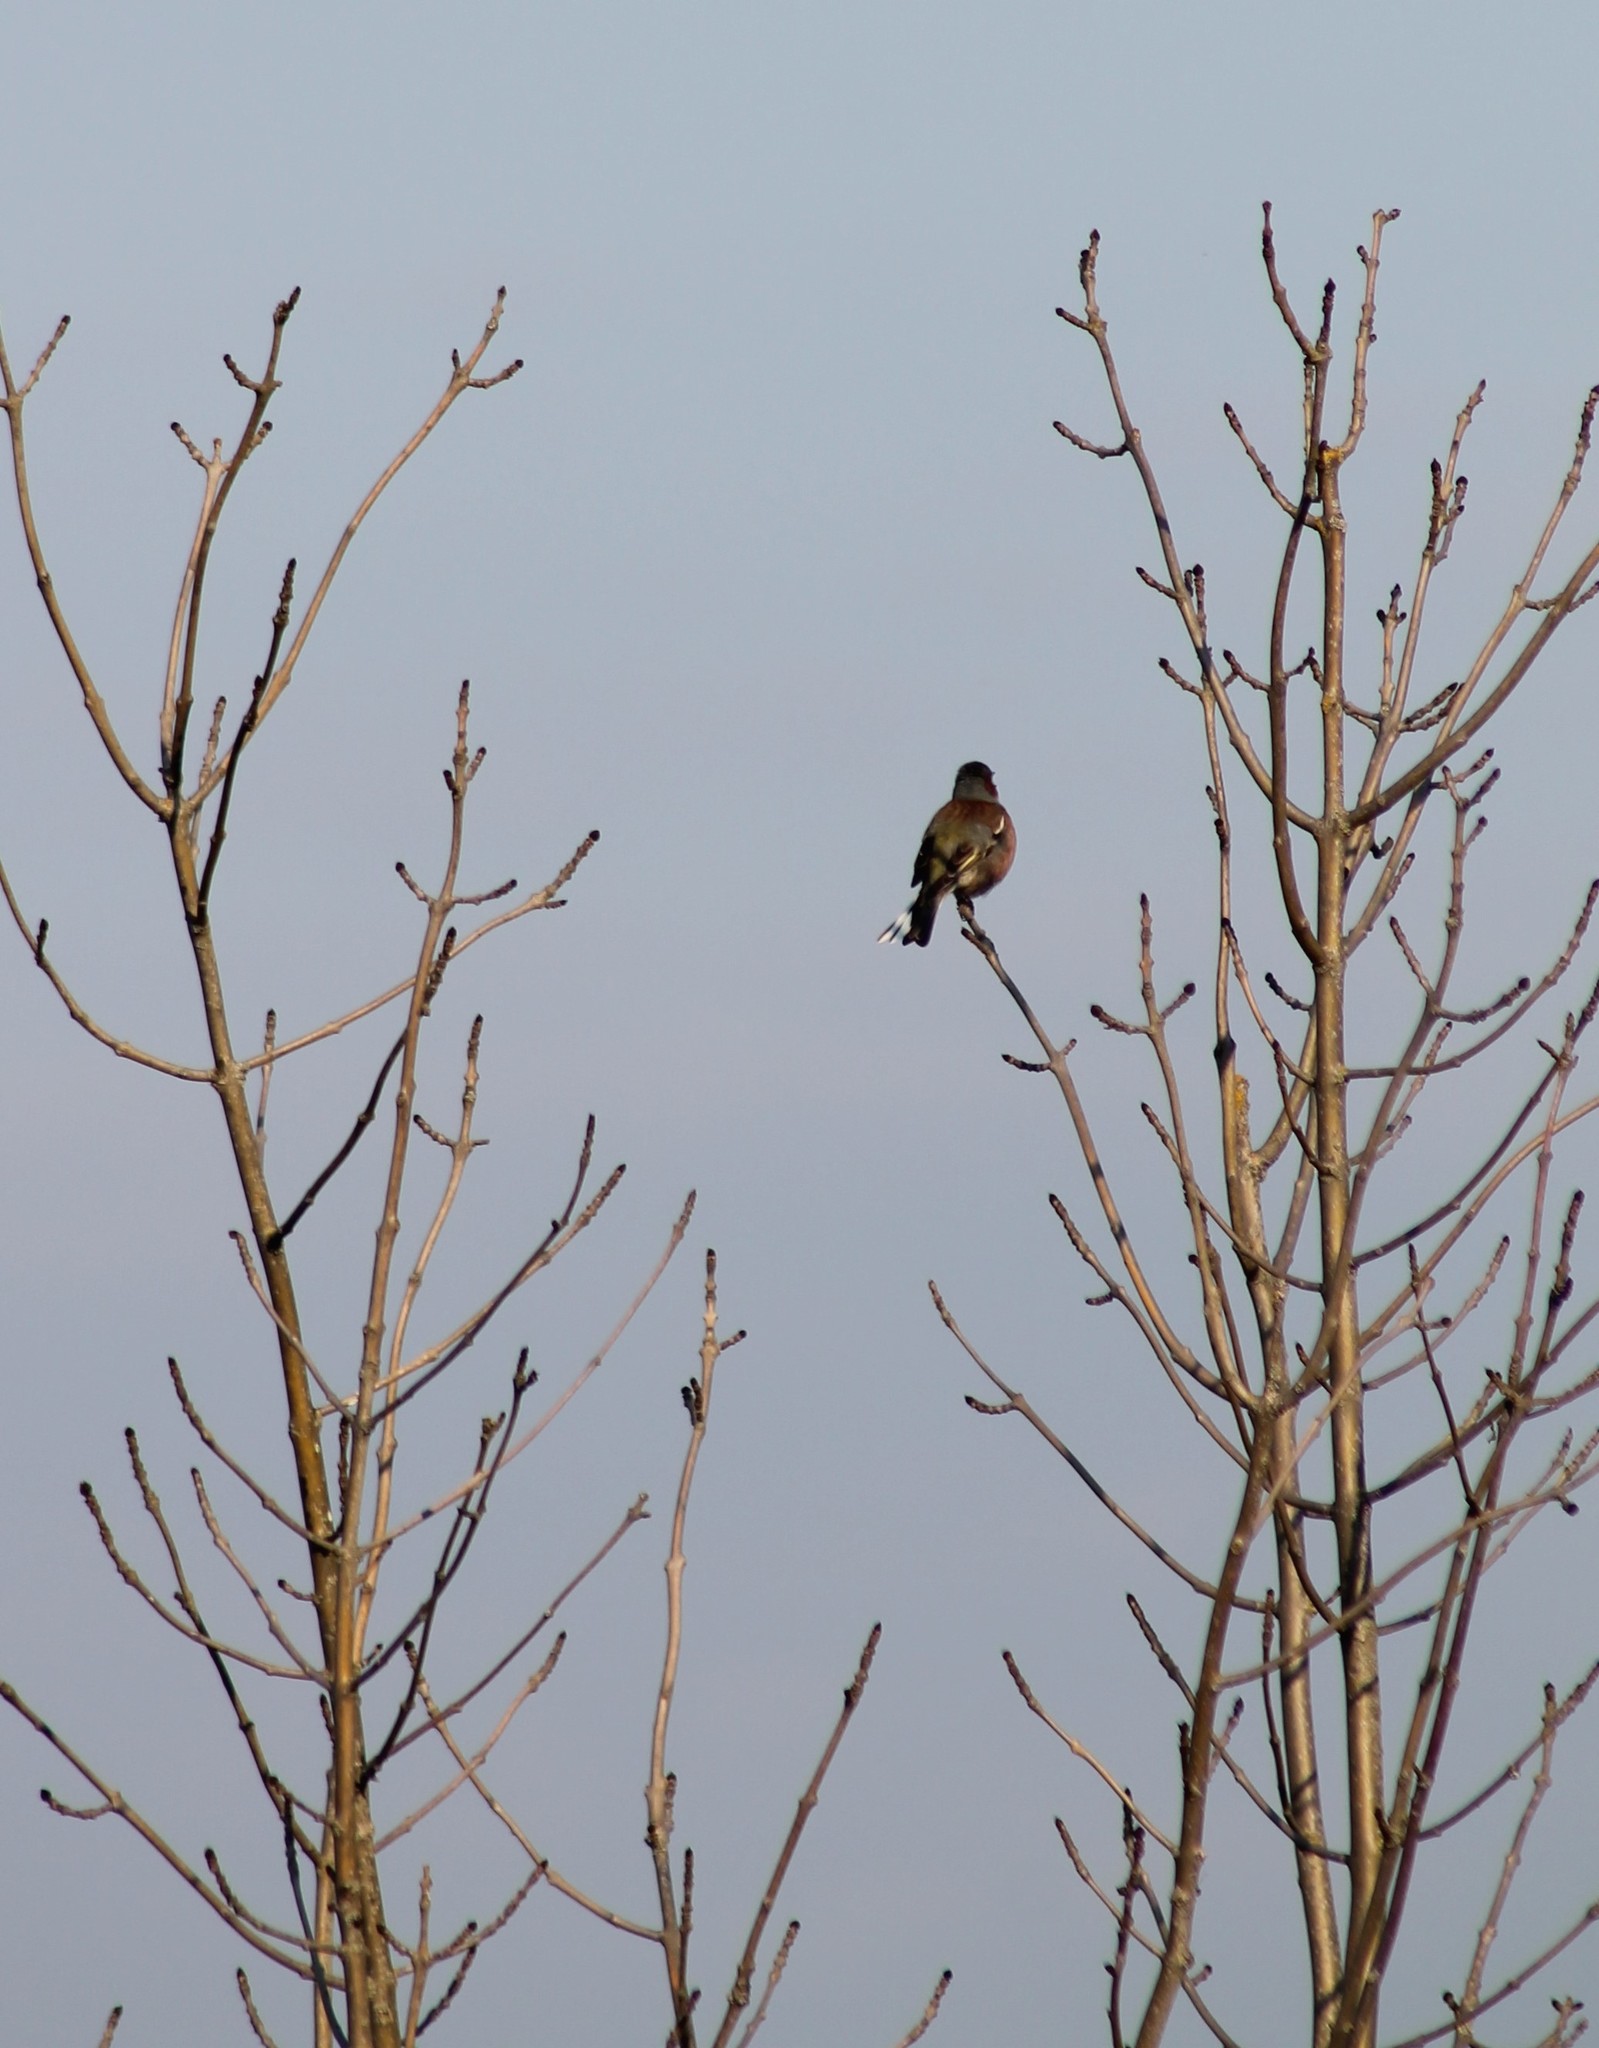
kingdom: Animalia
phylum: Chordata
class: Aves
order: Passeriformes
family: Fringillidae
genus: Fringilla
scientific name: Fringilla coelebs
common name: Common chaffinch
